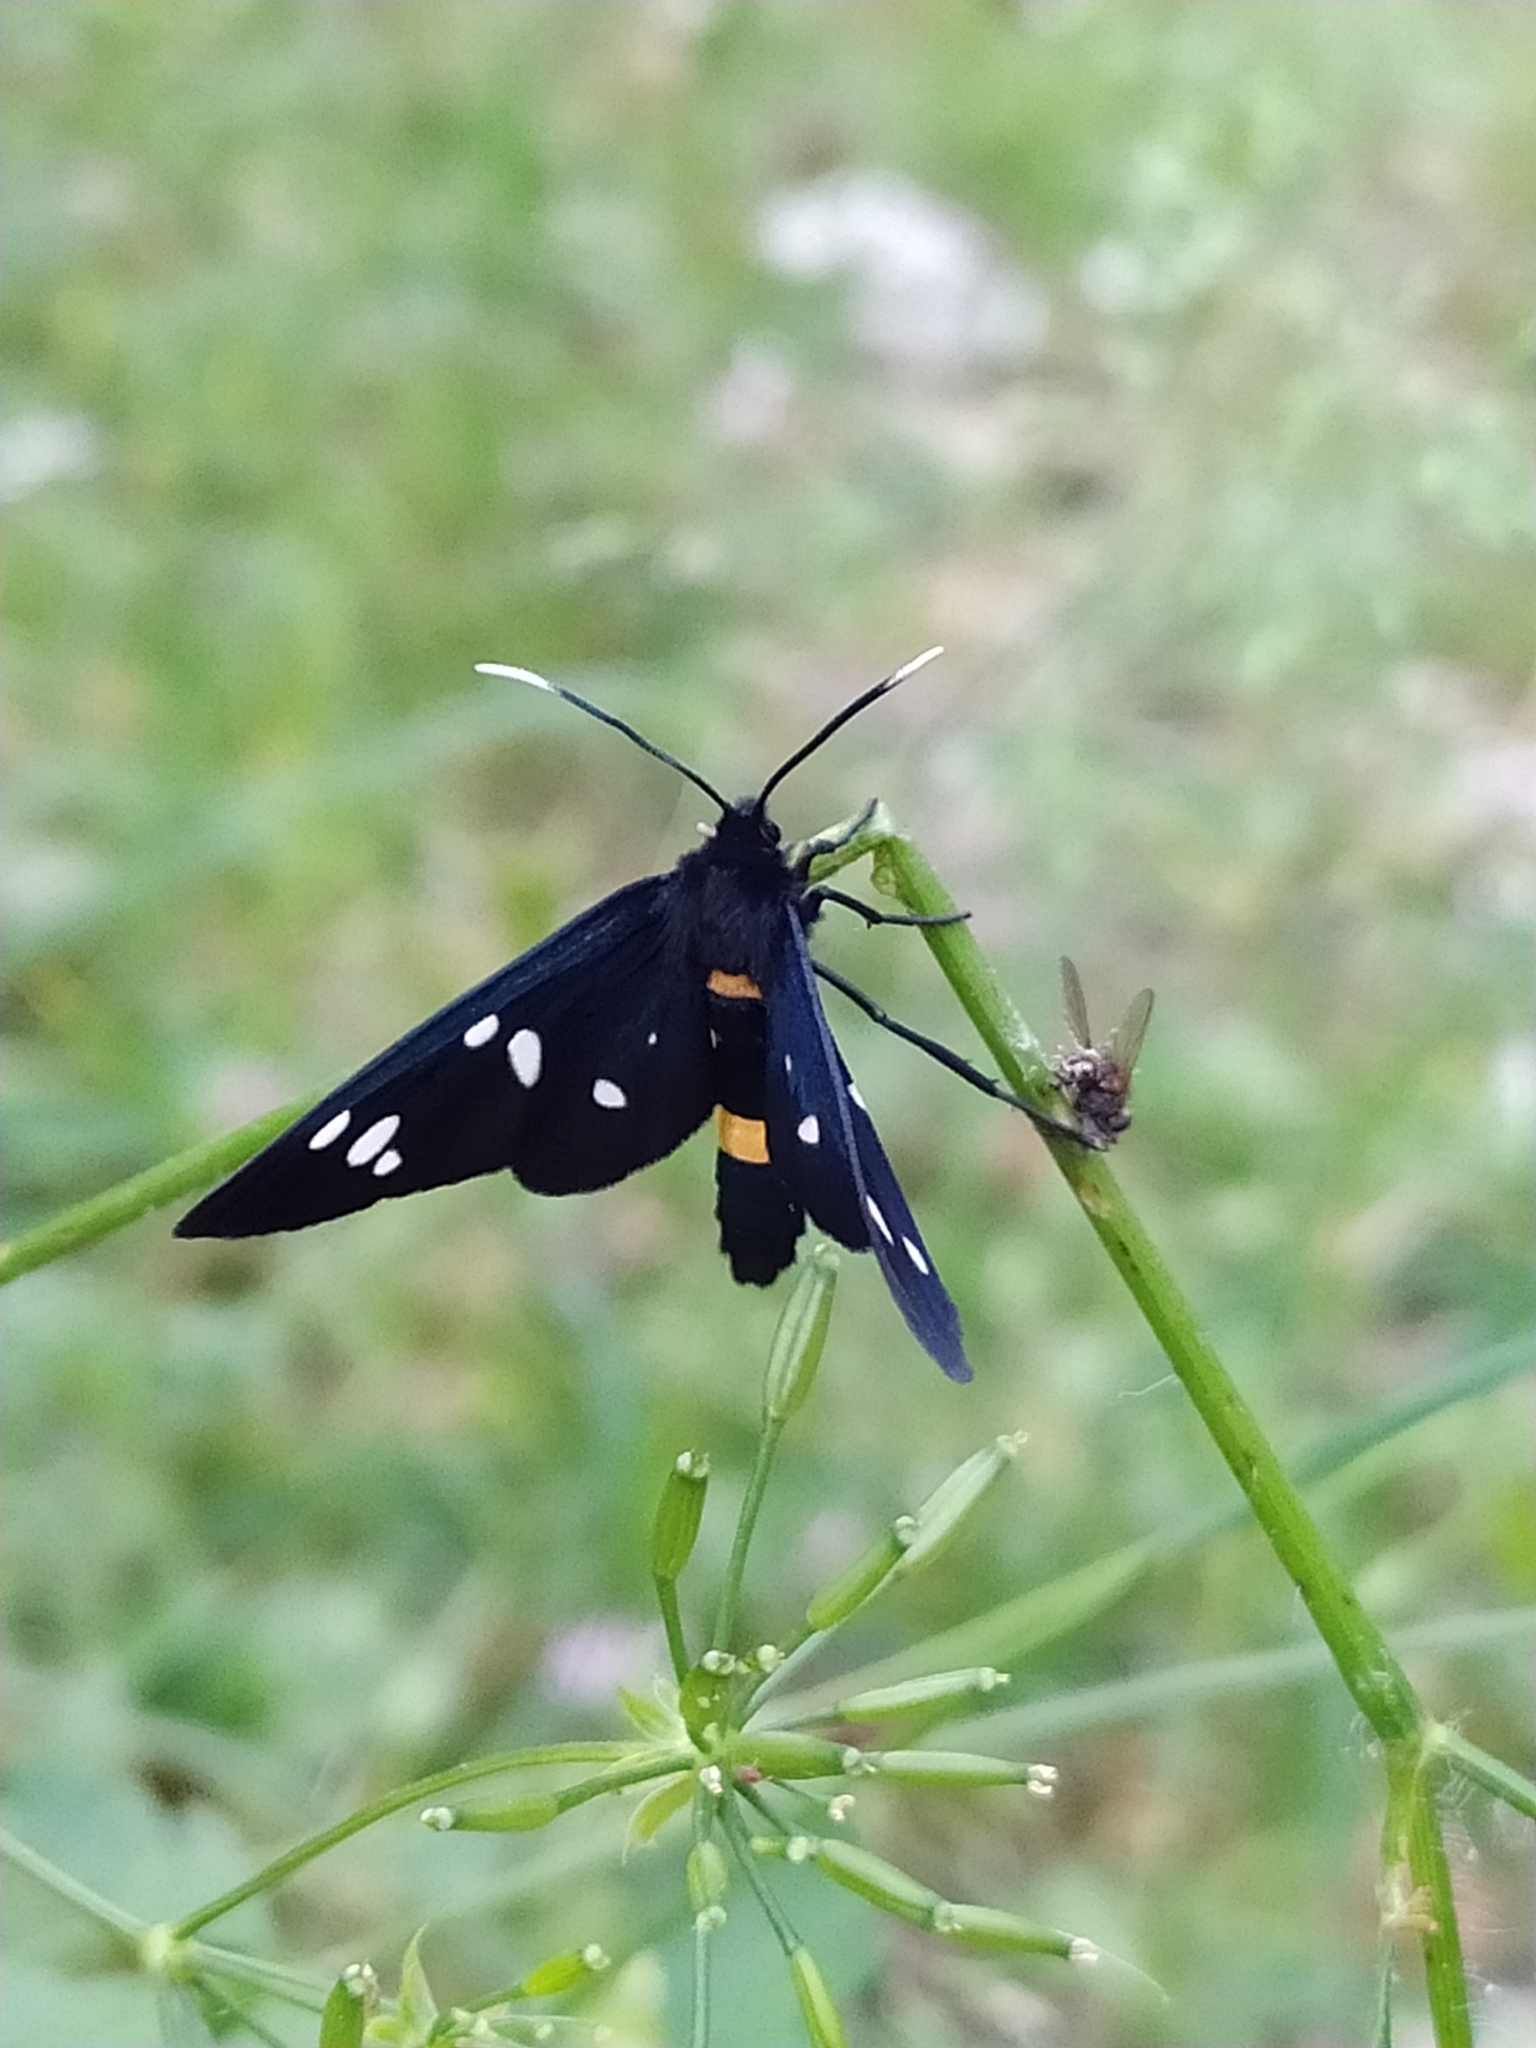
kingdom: Animalia
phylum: Arthropoda
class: Insecta
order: Lepidoptera
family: Erebidae
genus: Amata
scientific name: Amata phegea
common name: Nine-spotted
